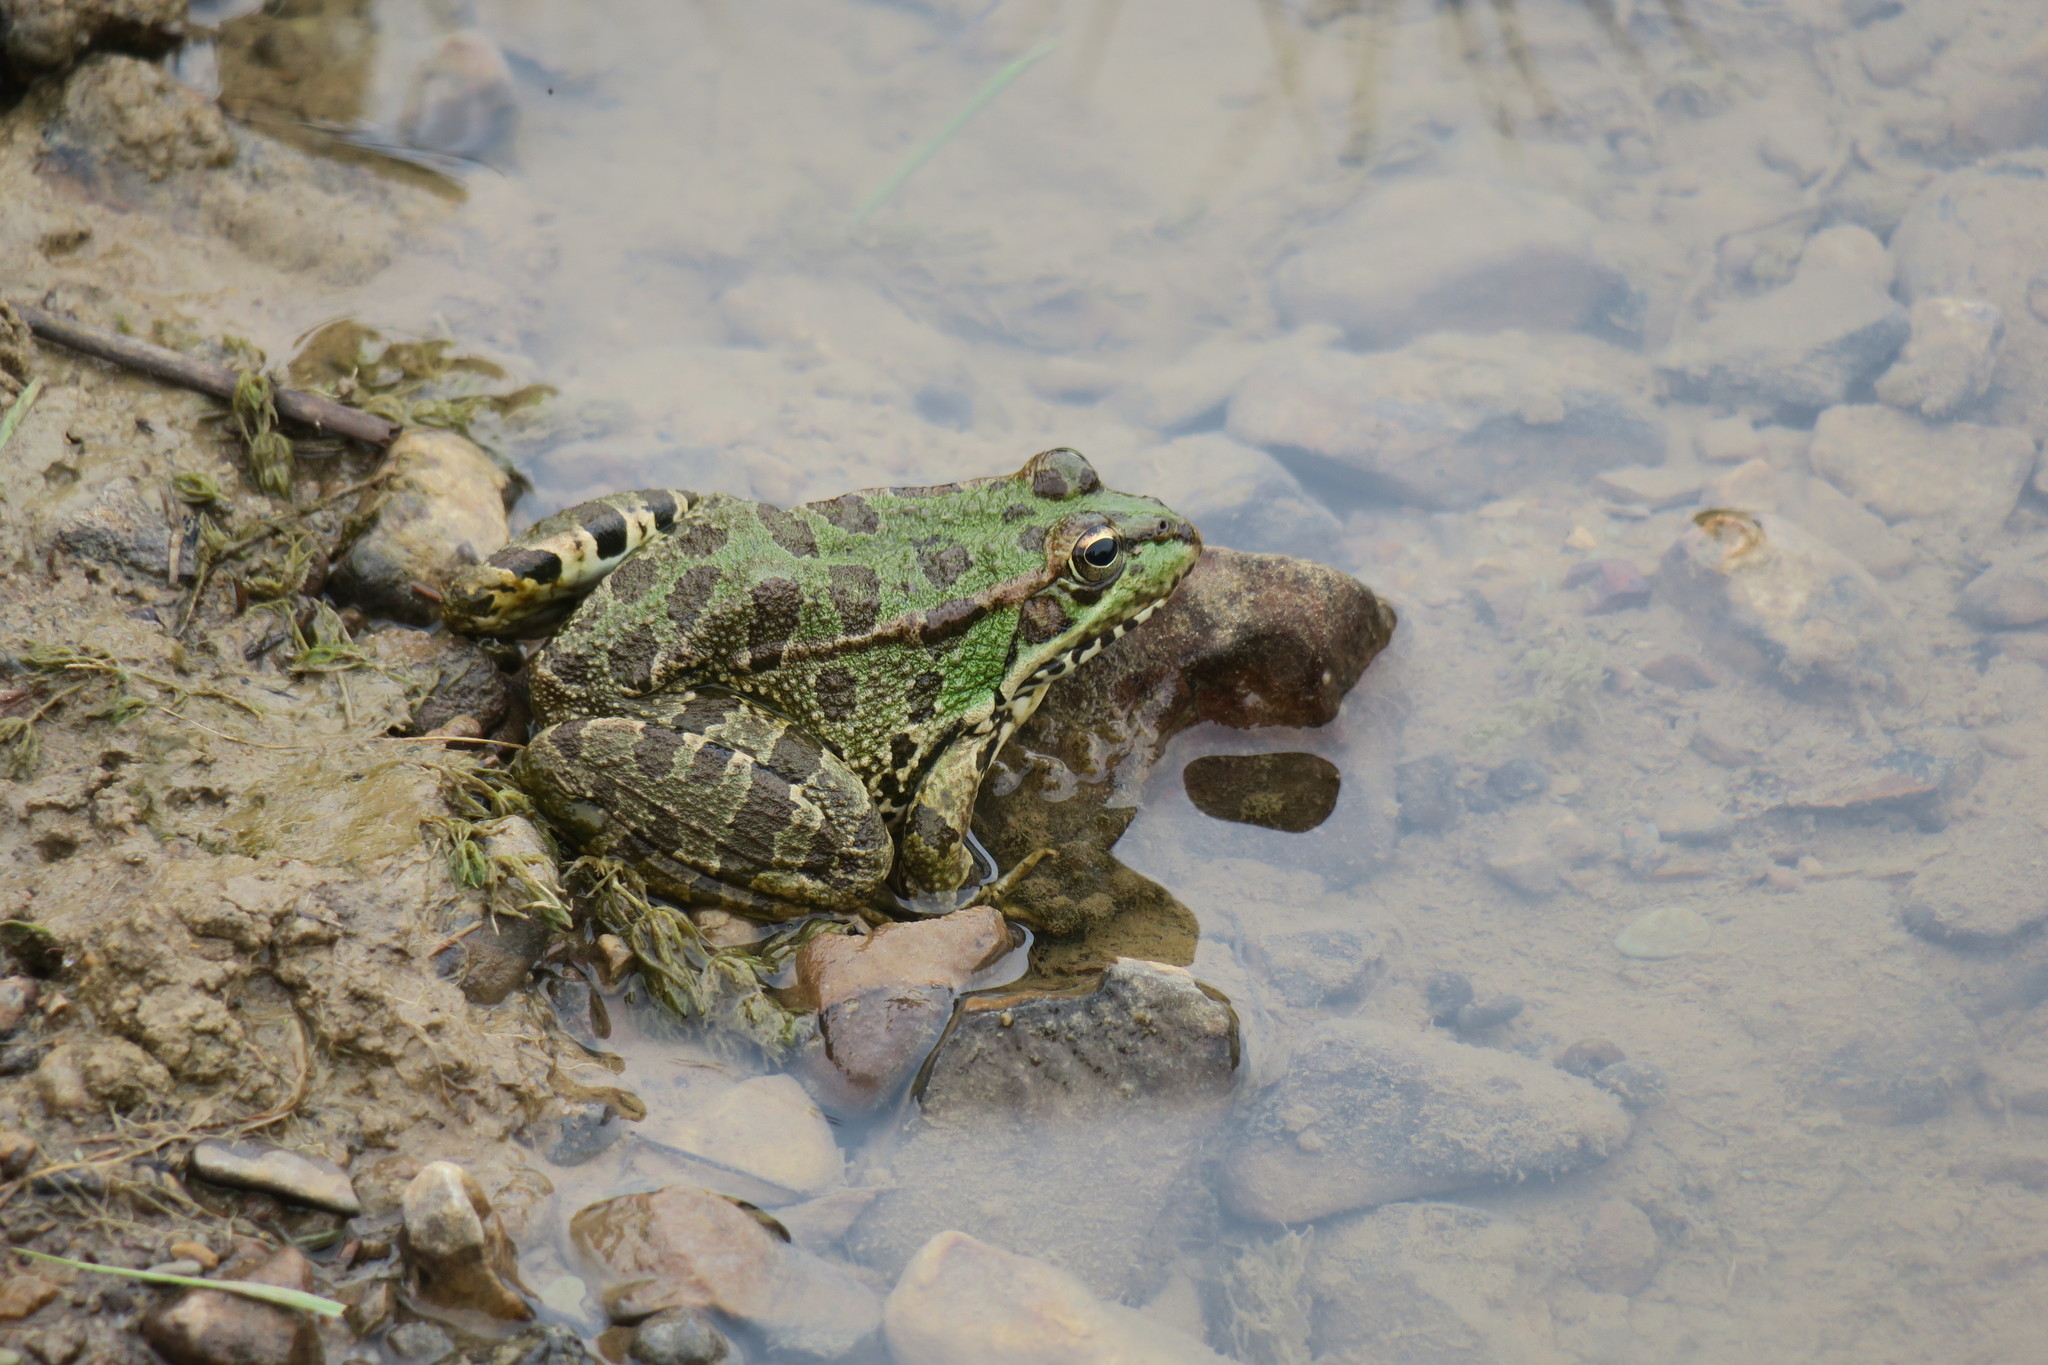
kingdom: Animalia
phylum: Chordata
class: Amphibia
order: Anura
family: Ranidae
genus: Pelophylax
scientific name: Pelophylax perezi
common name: Perez's frog
